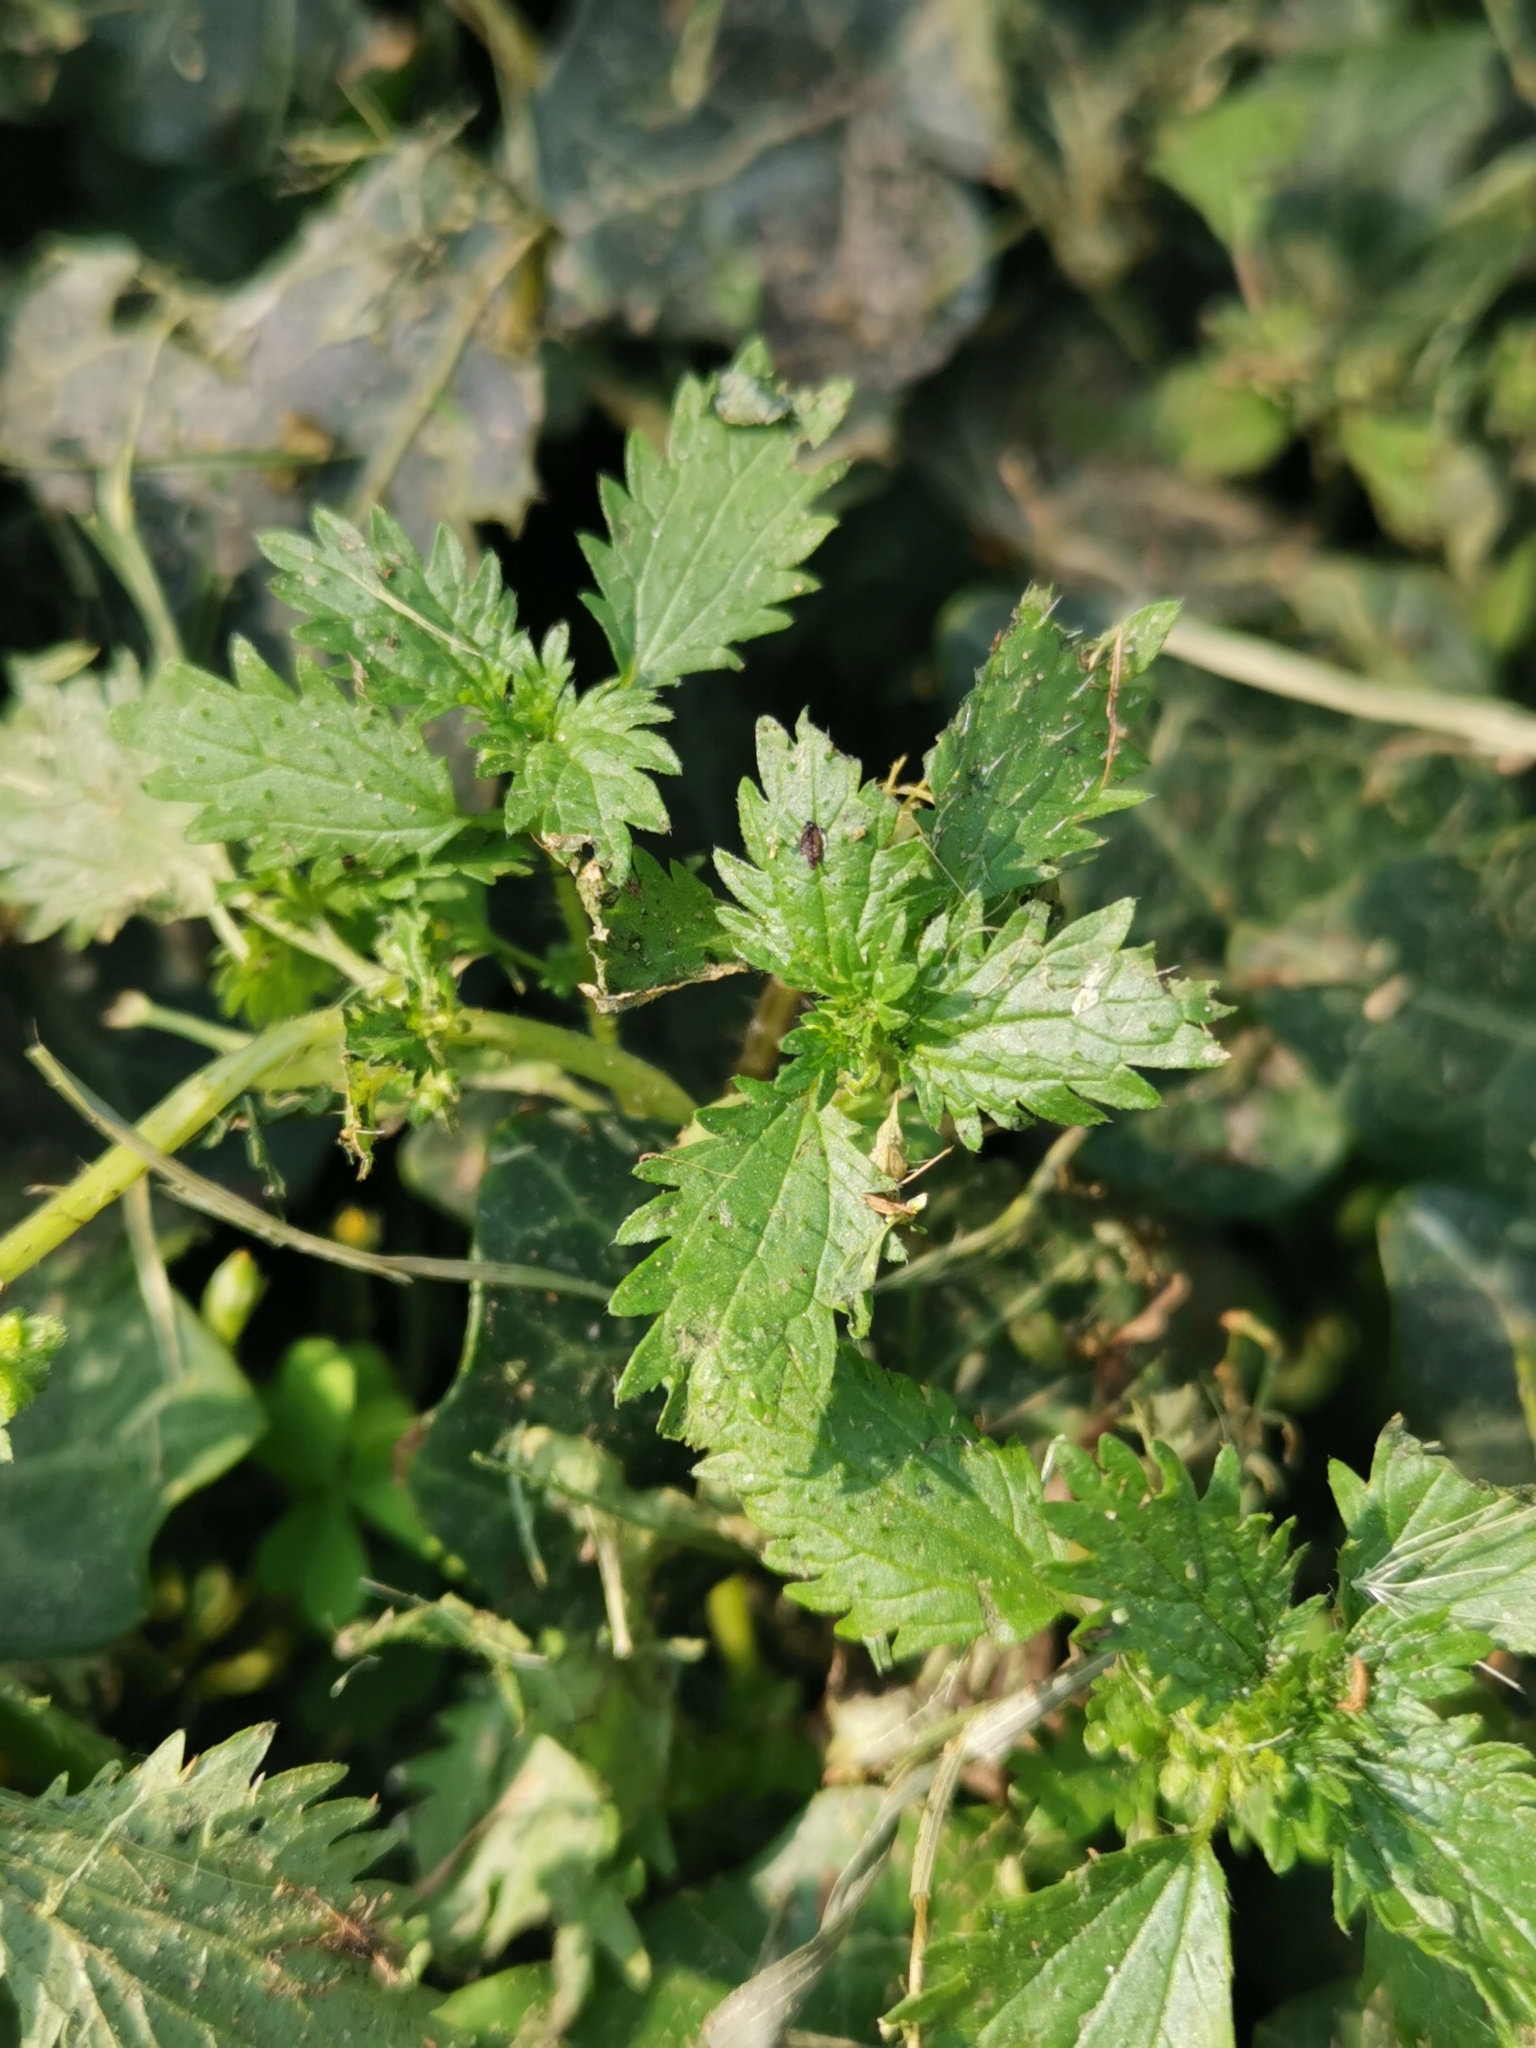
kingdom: Plantae
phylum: Tracheophyta
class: Magnoliopsida
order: Rosales
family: Urticaceae
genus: Urtica
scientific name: Urtica urens
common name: Dwarf nettle
